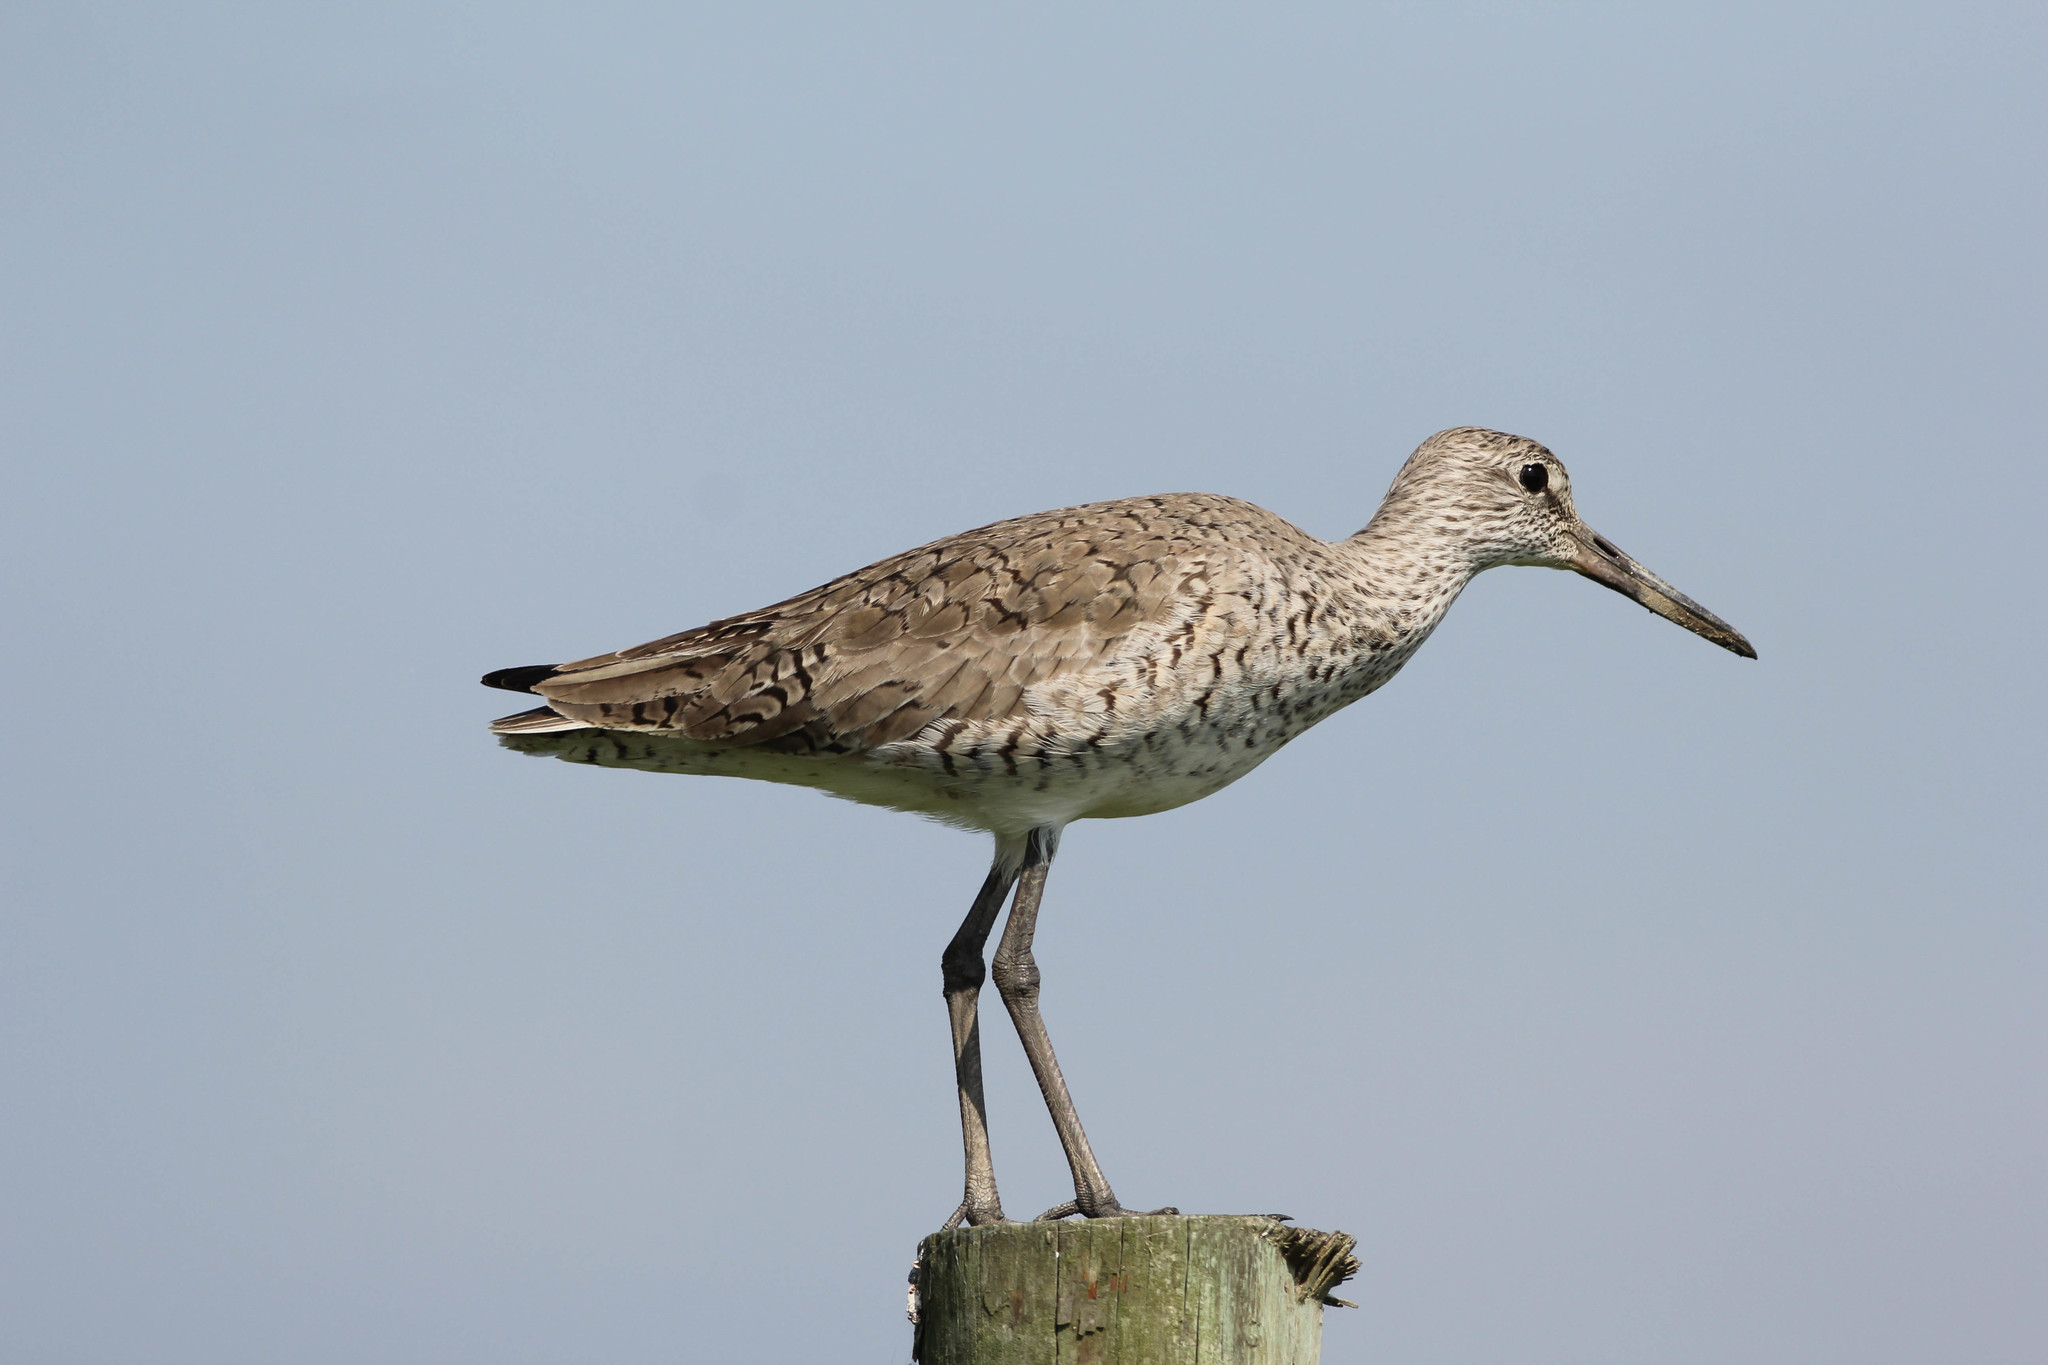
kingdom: Animalia
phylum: Chordata
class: Aves
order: Charadriiformes
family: Scolopacidae
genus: Tringa
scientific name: Tringa semipalmata
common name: Willet
